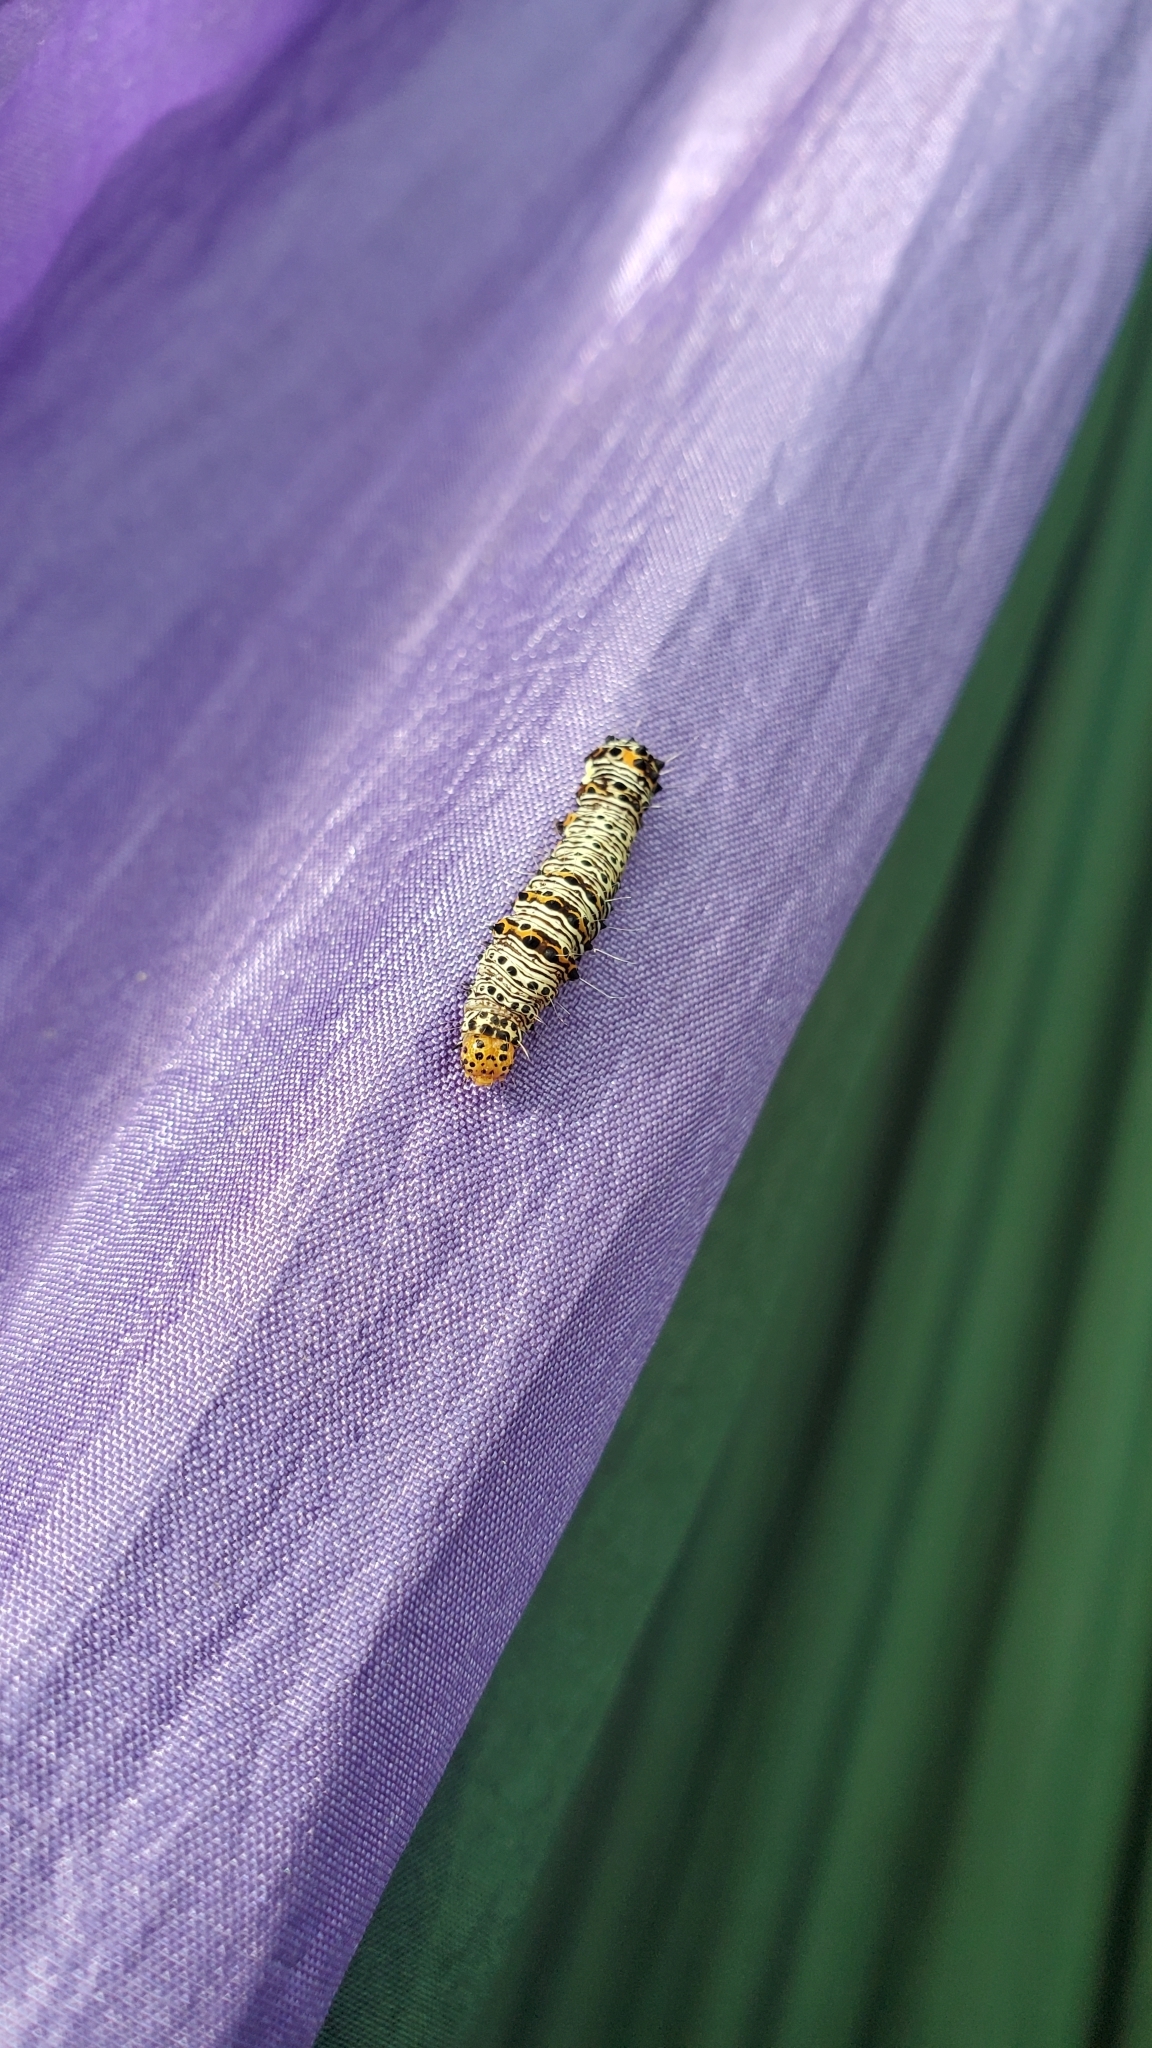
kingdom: Animalia
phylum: Arthropoda
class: Insecta
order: Lepidoptera
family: Noctuidae
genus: Alypia
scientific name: Alypia octomaculata
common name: Eight-spotted forester
